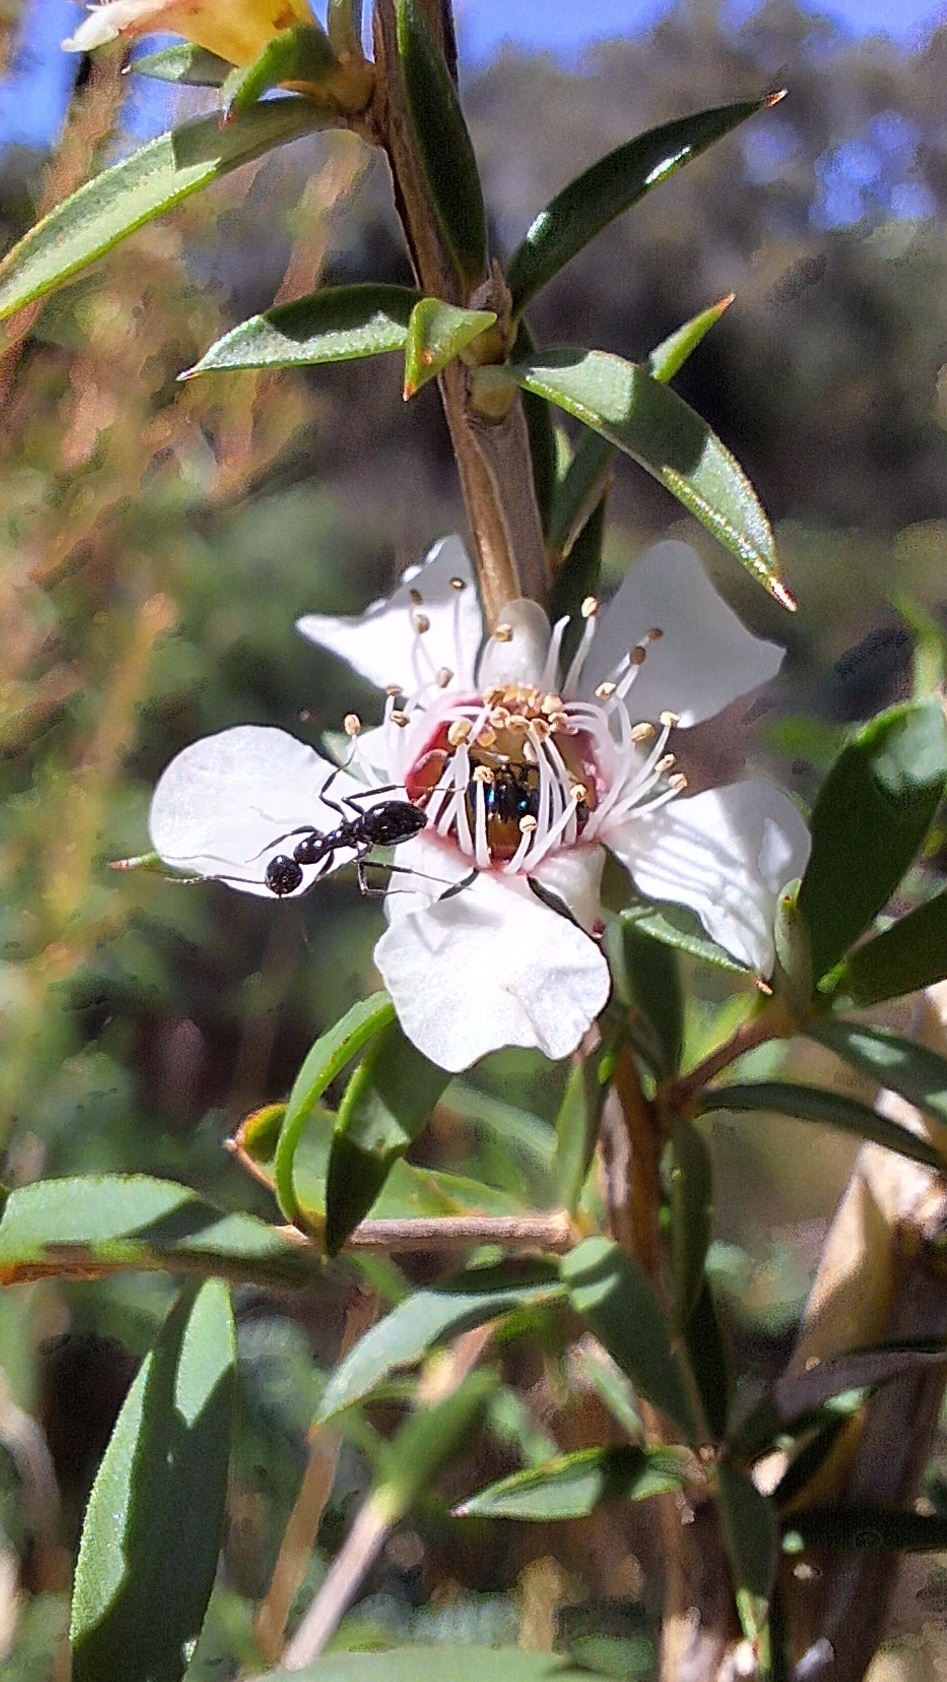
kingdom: Plantae
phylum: Tracheophyta
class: Magnoliopsida
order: Myrtales
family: Myrtaceae
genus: Leptospermum
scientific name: Leptospermum continentale
